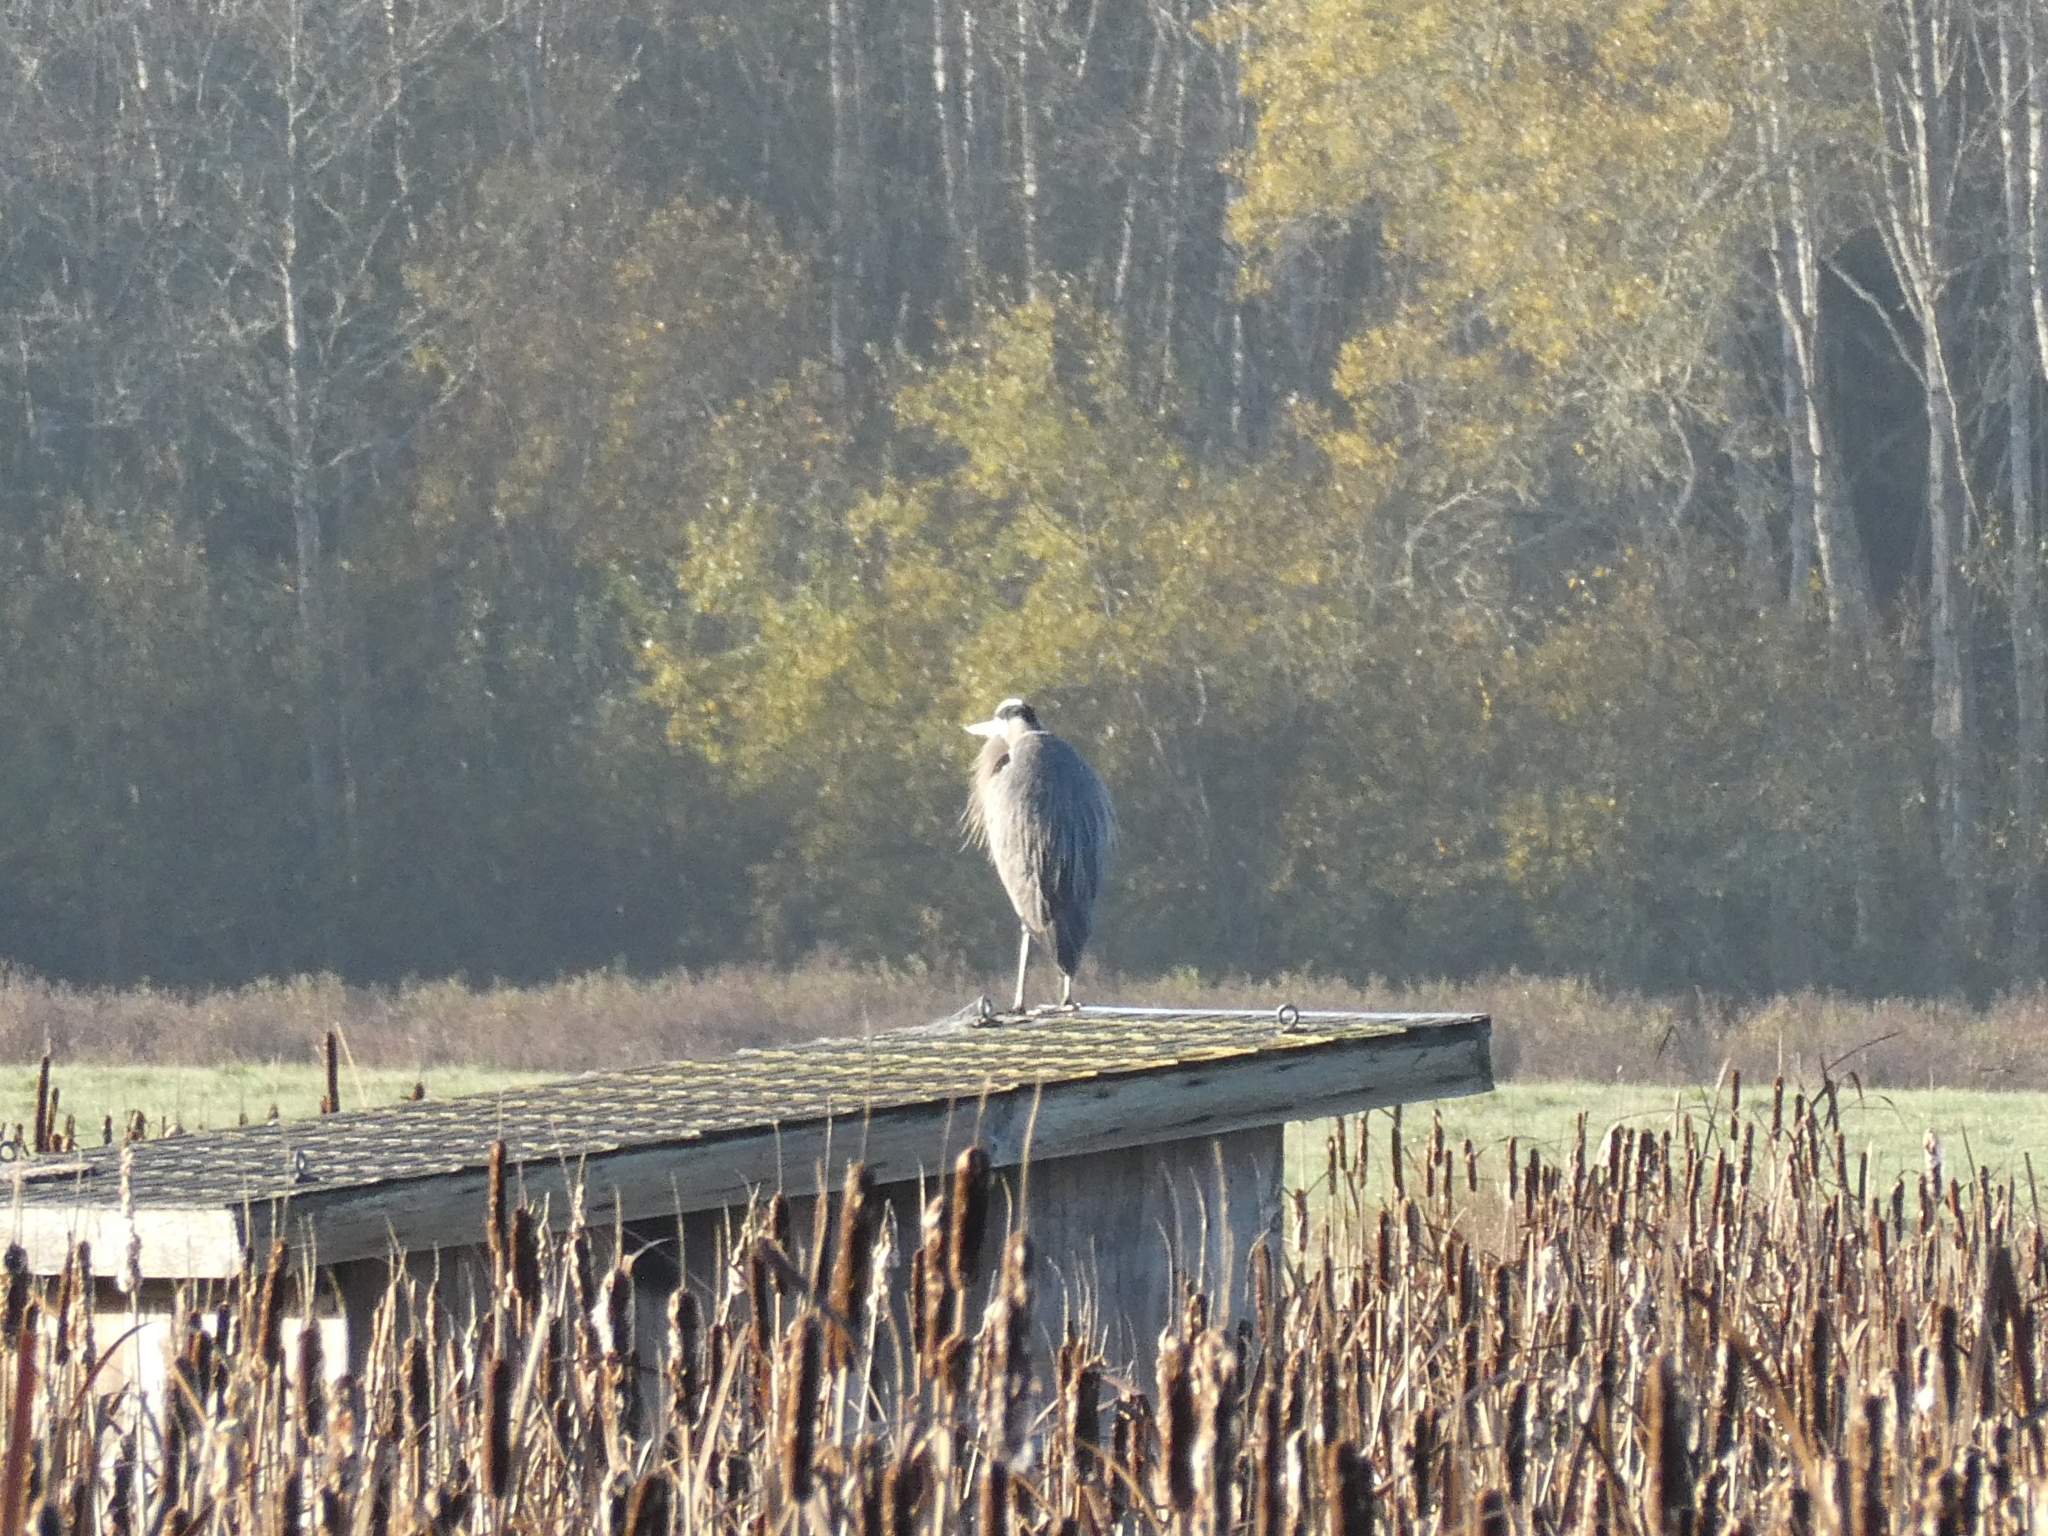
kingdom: Animalia
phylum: Chordata
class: Aves
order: Pelecaniformes
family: Ardeidae
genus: Ardea
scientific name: Ardea herodias
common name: Great blue heron
